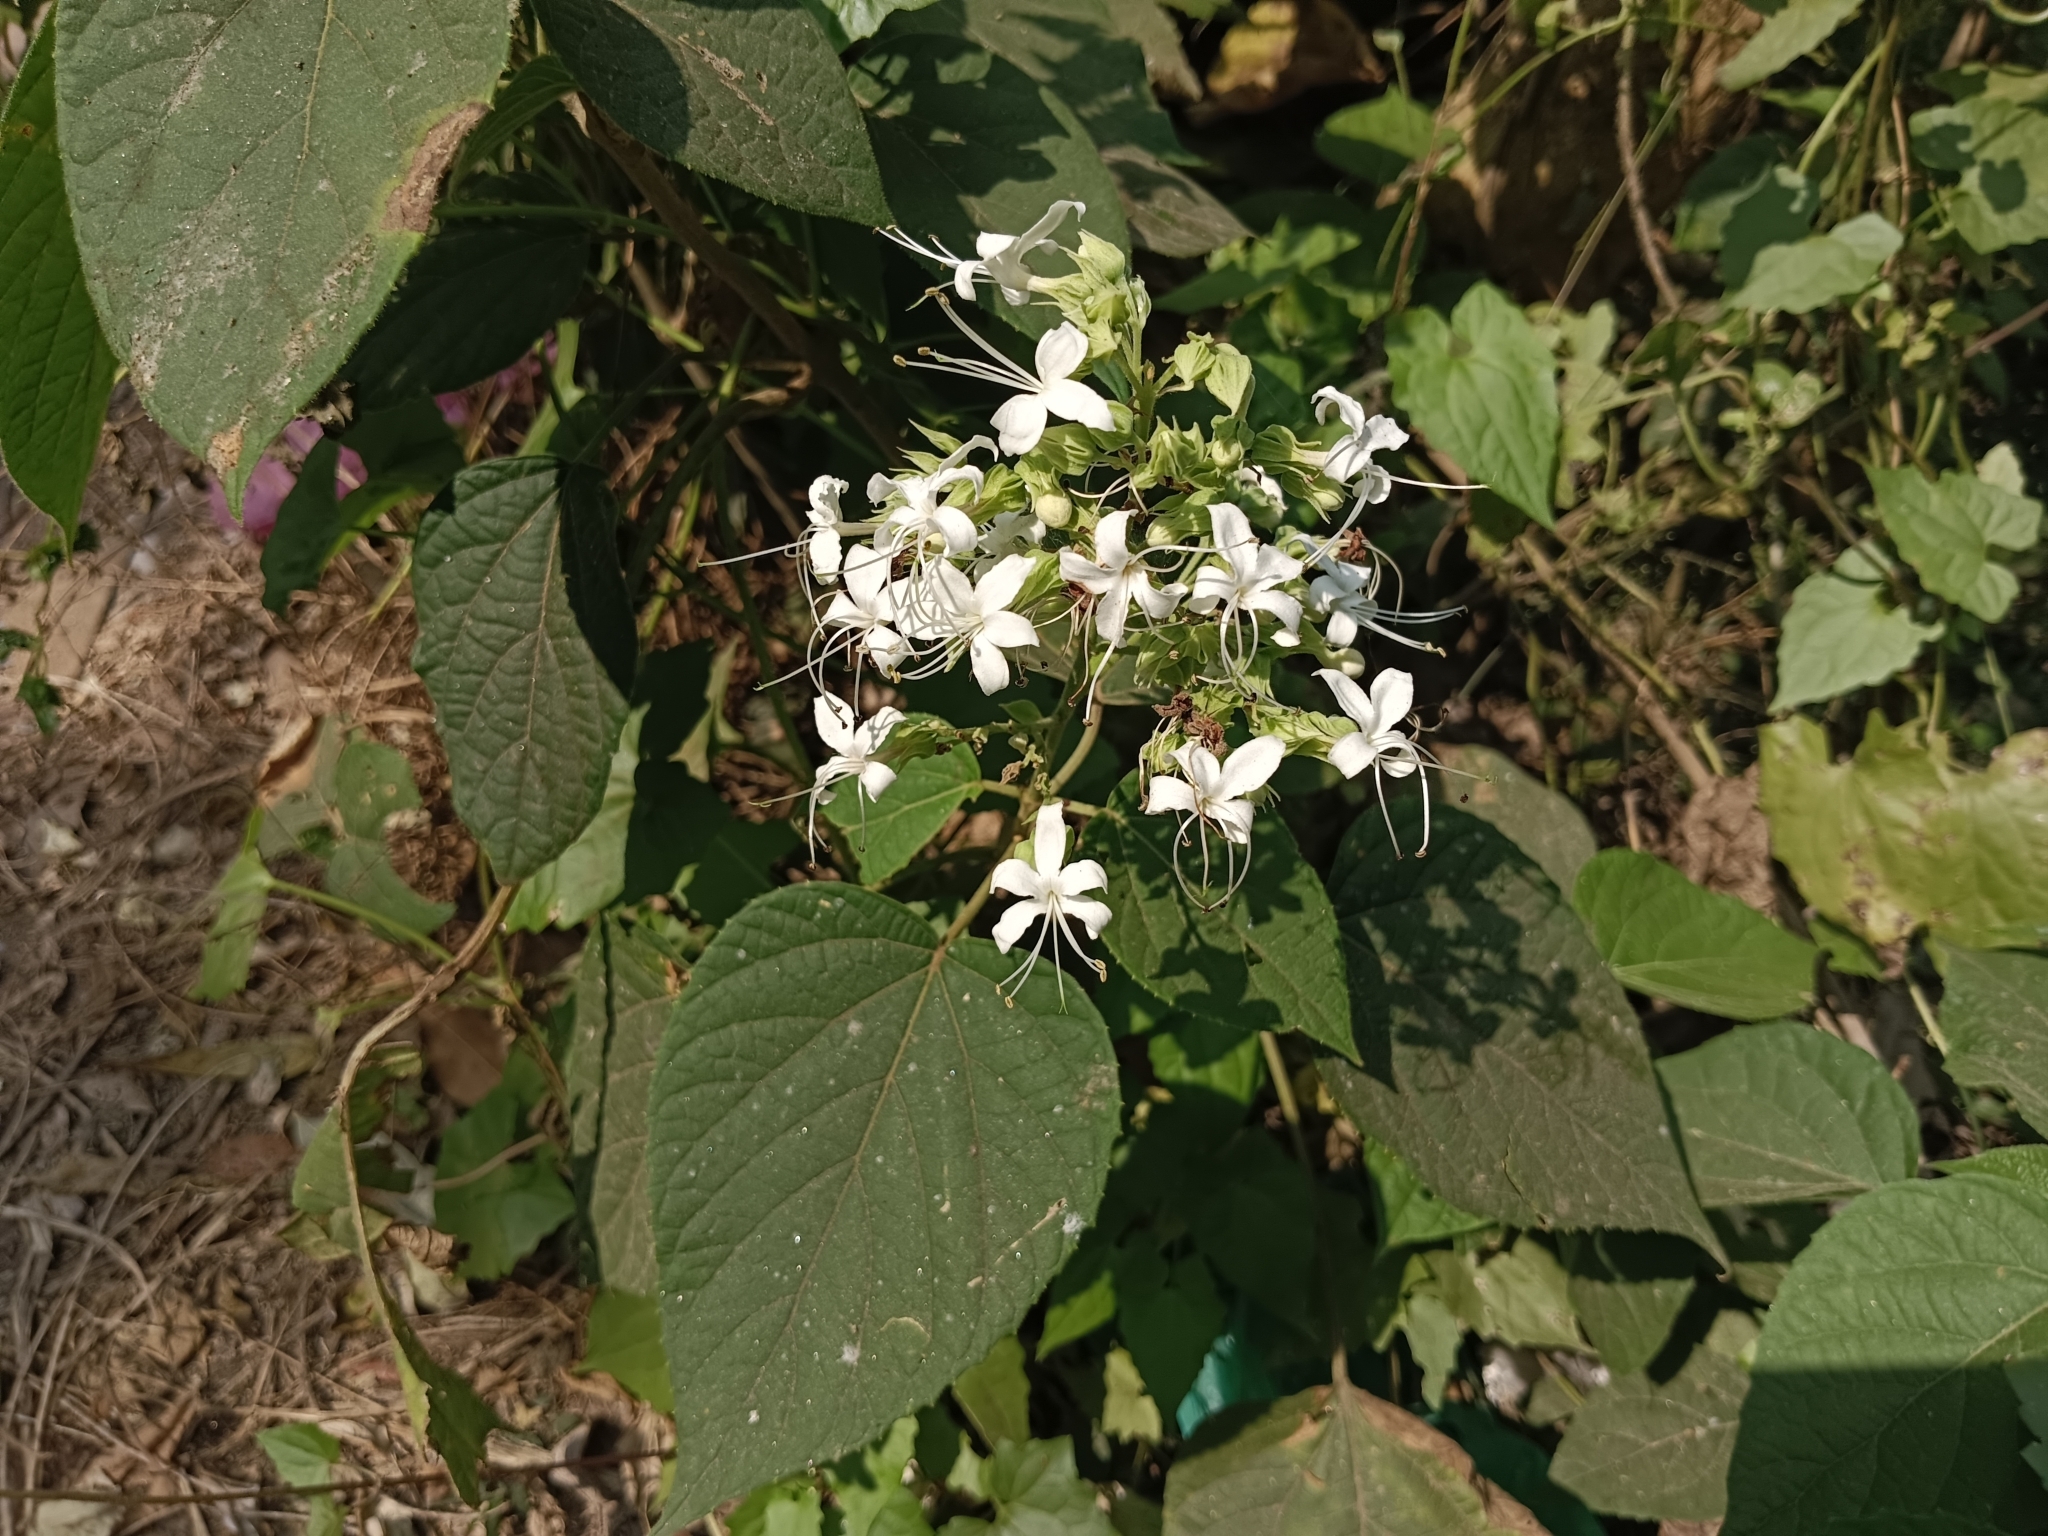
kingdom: Plantae
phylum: Tracheophyta
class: Magnoliopsida
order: Lamiales
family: Lamiaceae
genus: Clerodendrum
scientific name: Clerodendrum infortunatum
